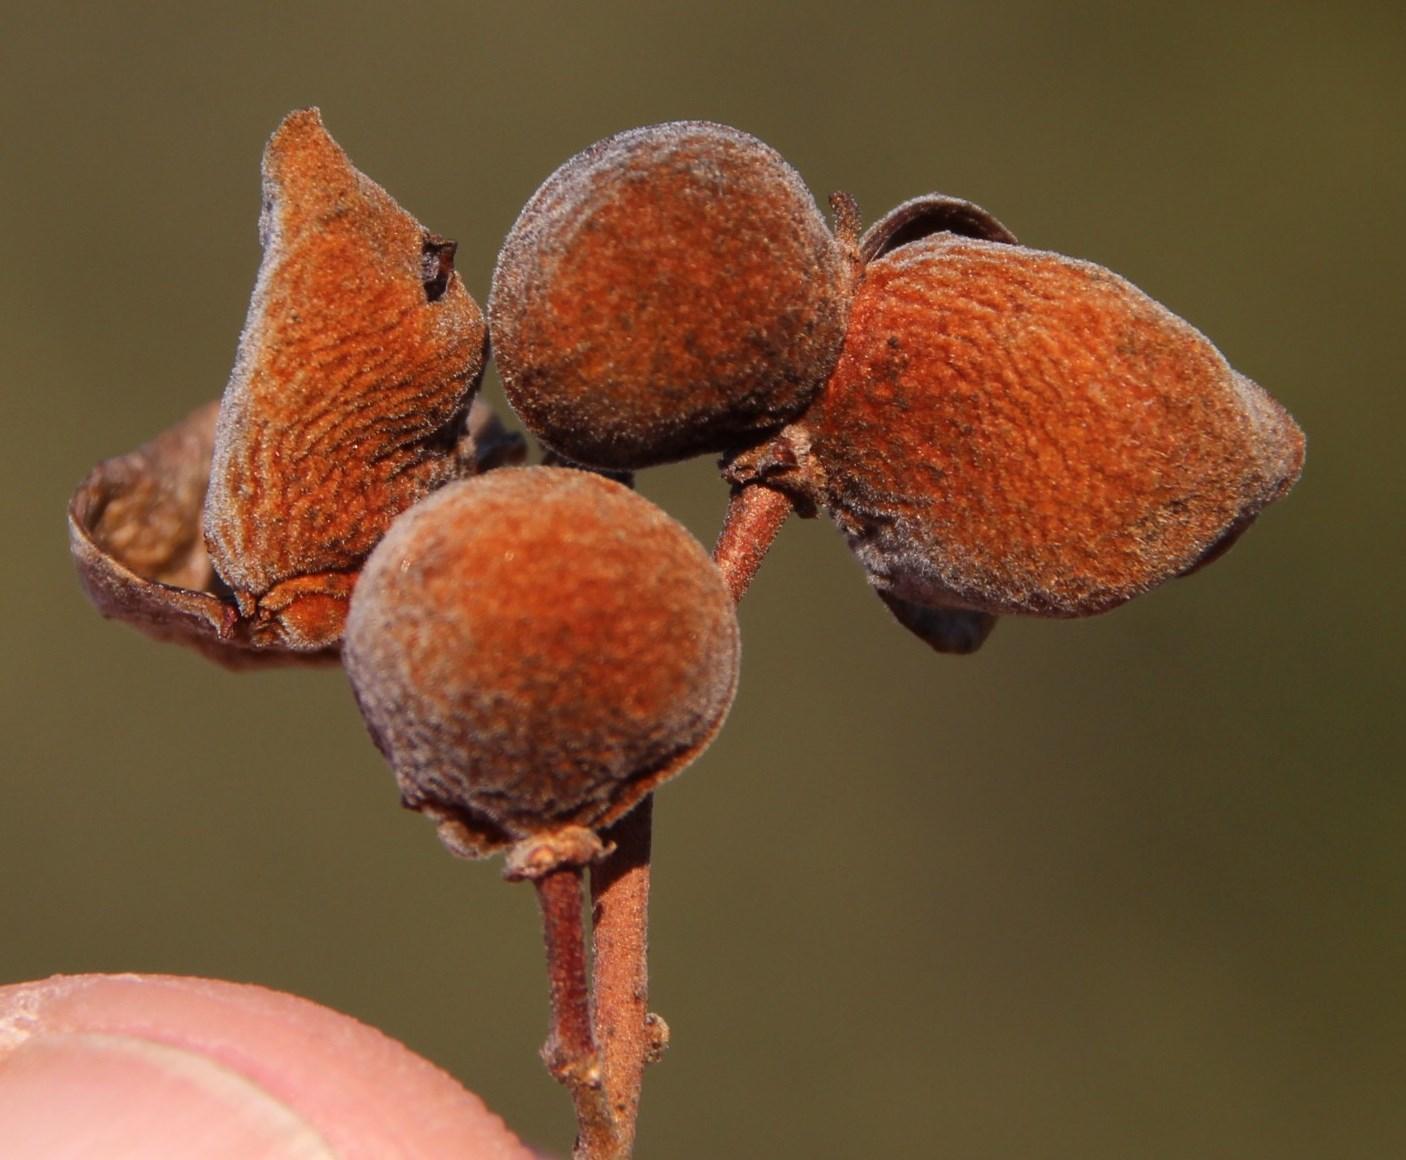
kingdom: Plantae
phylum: Tracheophyta
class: Magnoliopsida
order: Sapindales
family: Sapindaceae
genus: Pappea
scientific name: Pappea capensis
